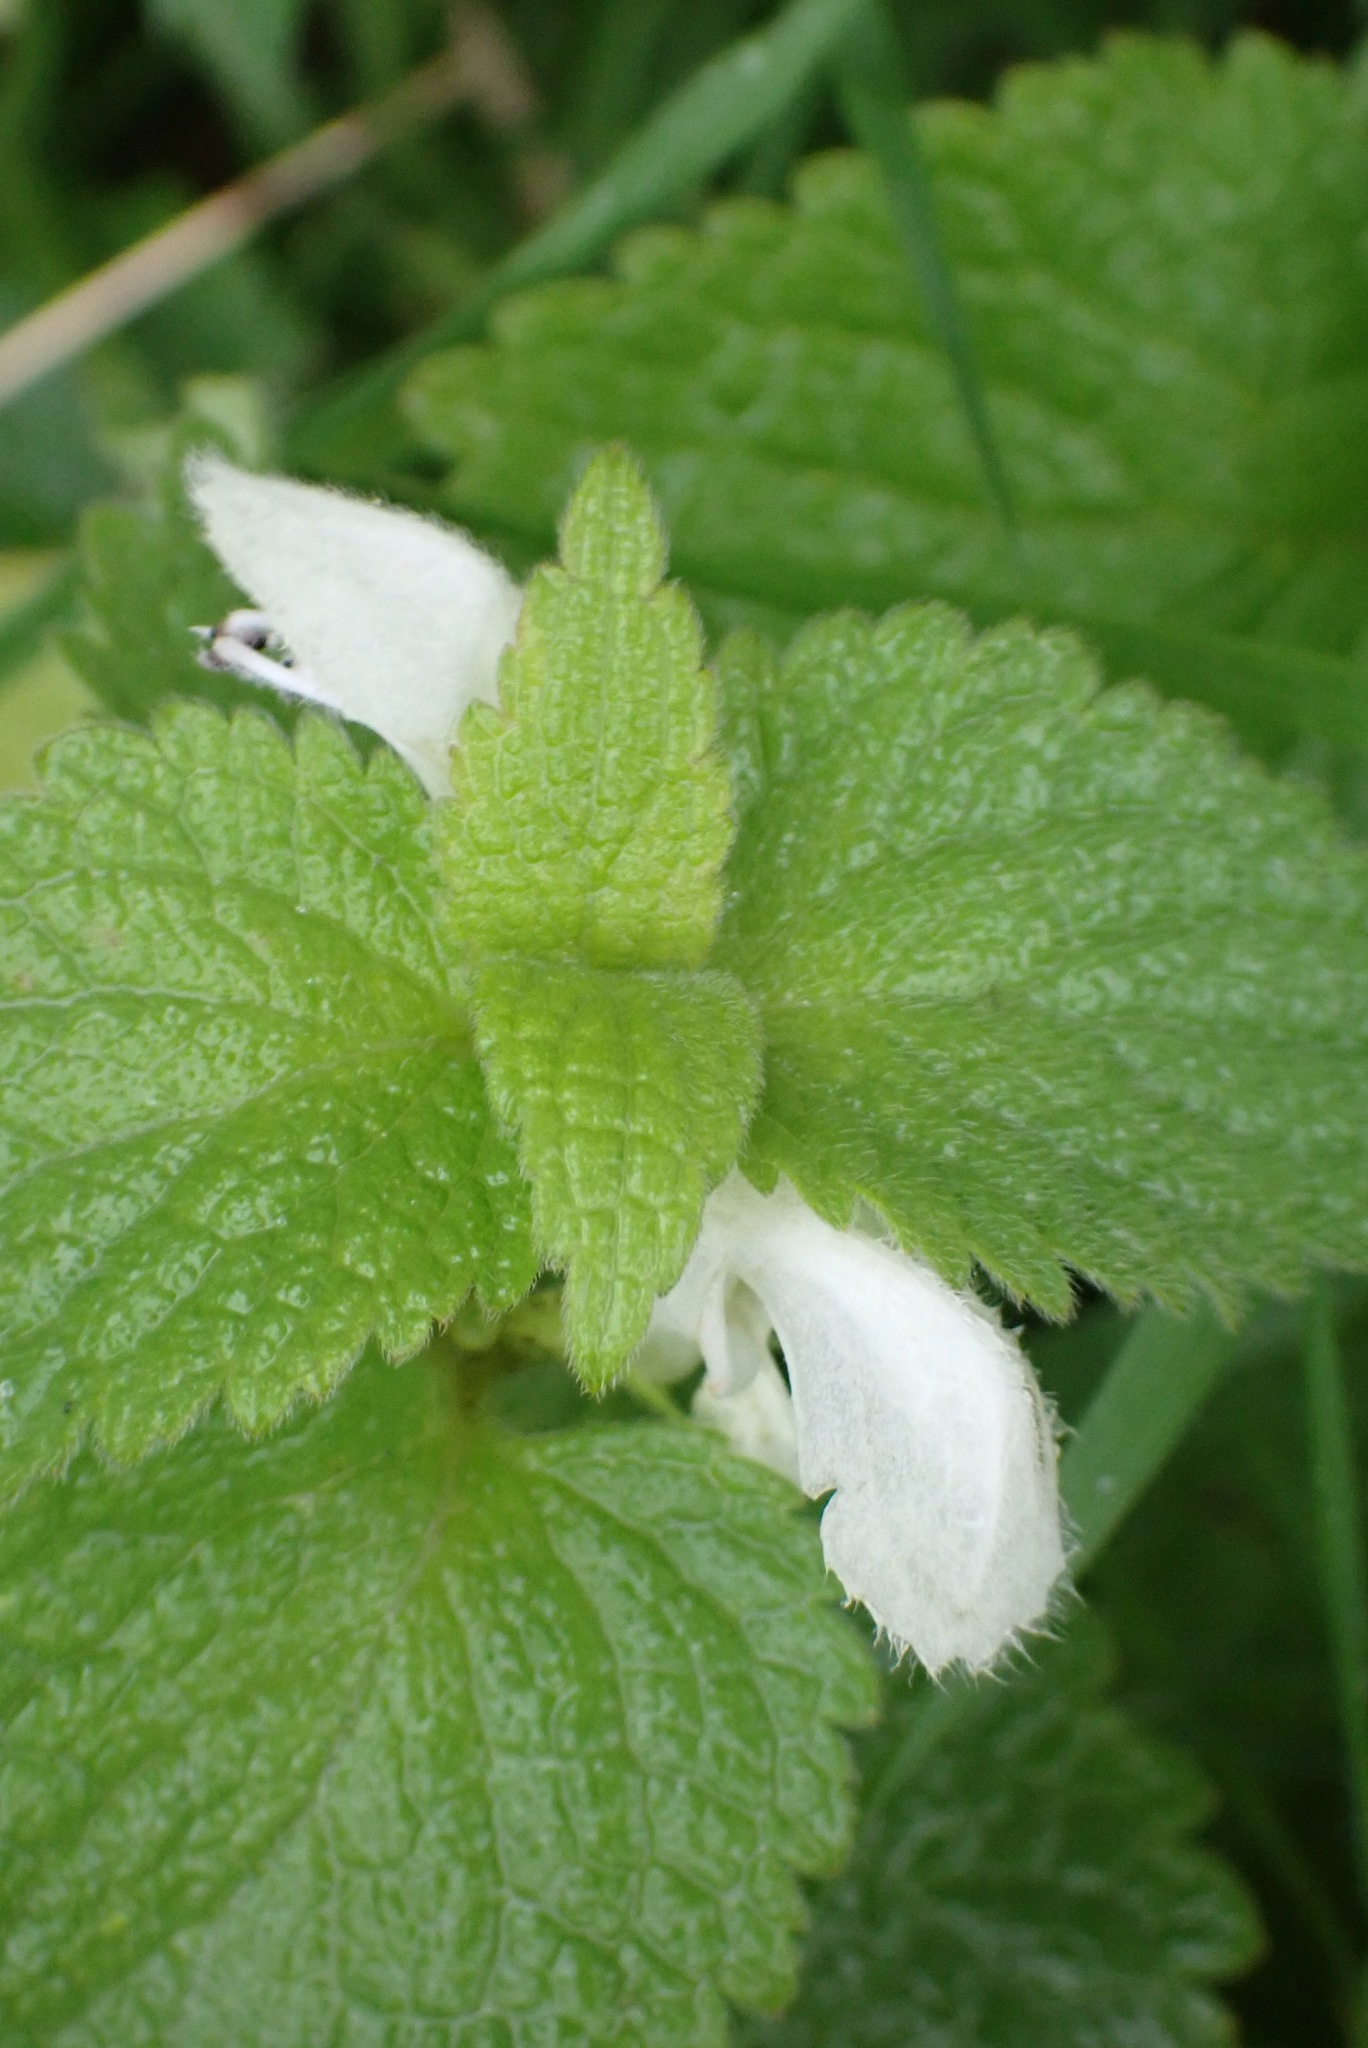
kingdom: Plantae
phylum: Tracheophyta
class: Magnoliopsida
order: Lamiales
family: Lamiaceae
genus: Lamium
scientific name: Lamium album
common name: White dead-nettle
